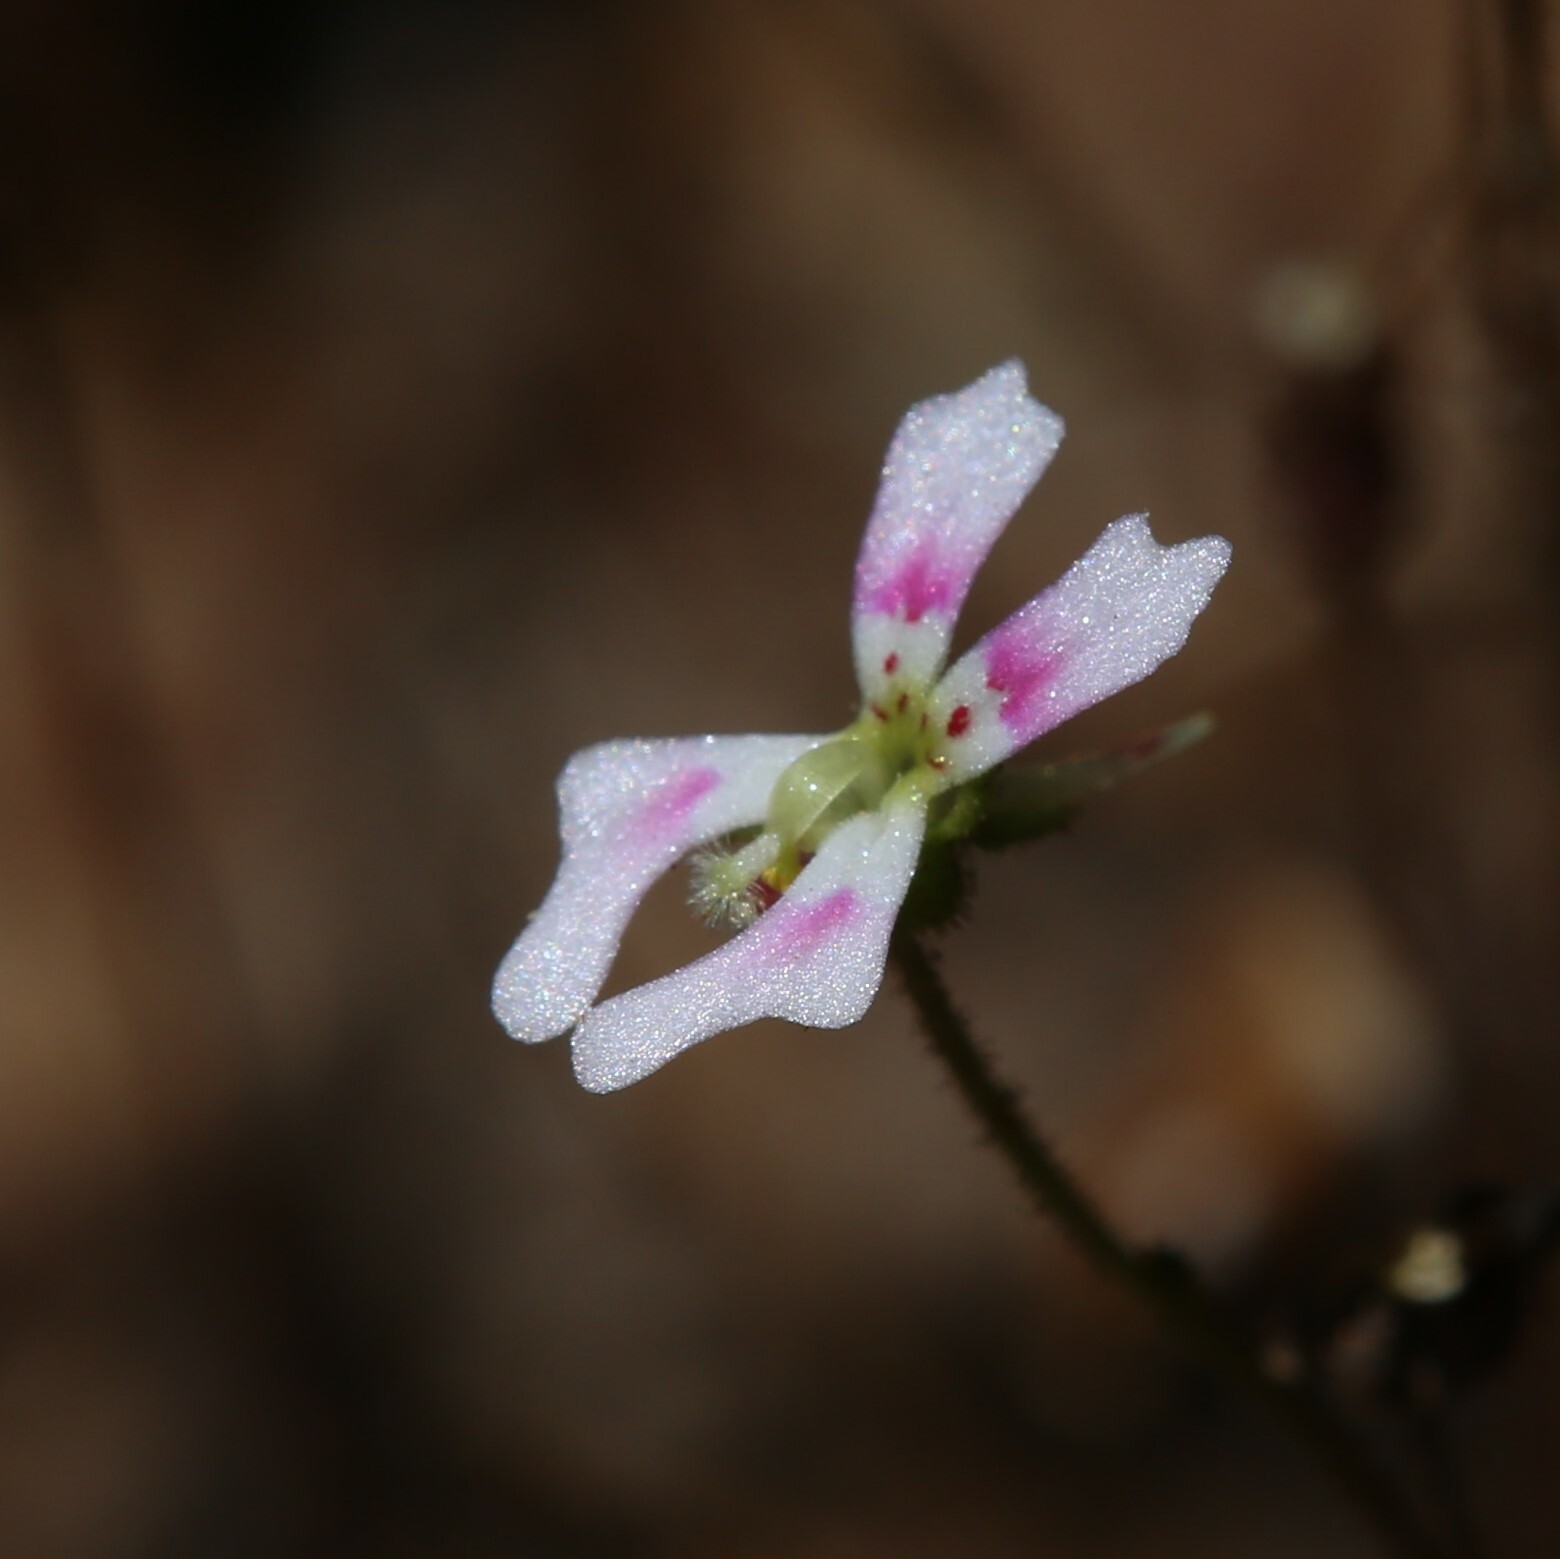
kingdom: Plantae
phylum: Tracheophyta
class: Magnoliopsida
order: Asterales
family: Stylidiaceae
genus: Stylidium
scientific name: Stylidium calcaratum
